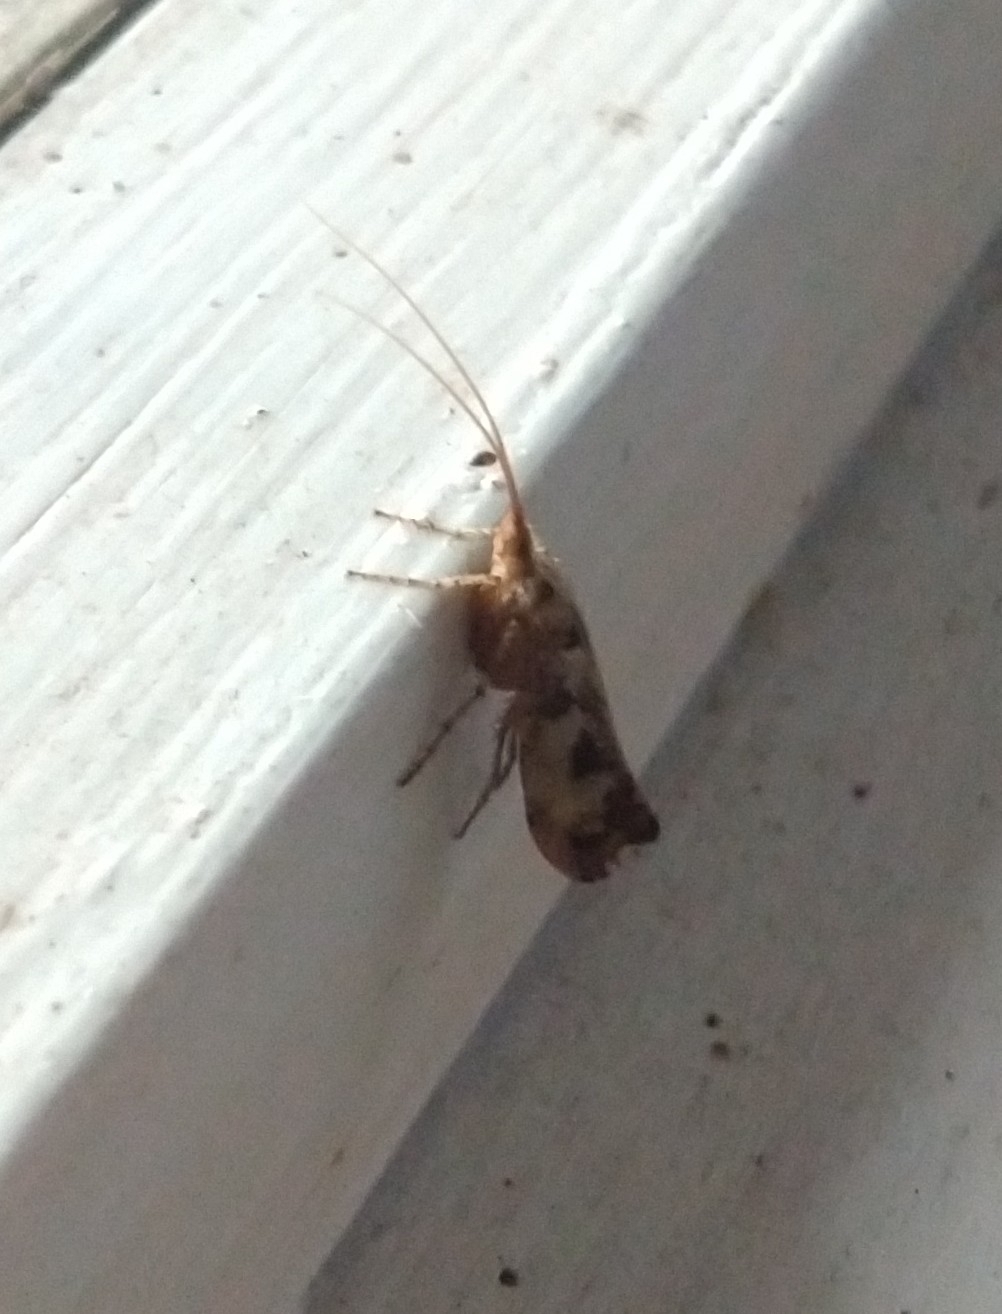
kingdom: Animalia
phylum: Arthropoda
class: Insecta
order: Trichoptera
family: Limnephilidae
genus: Glyphotaelius
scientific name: Glyphotaelius pellucidus
